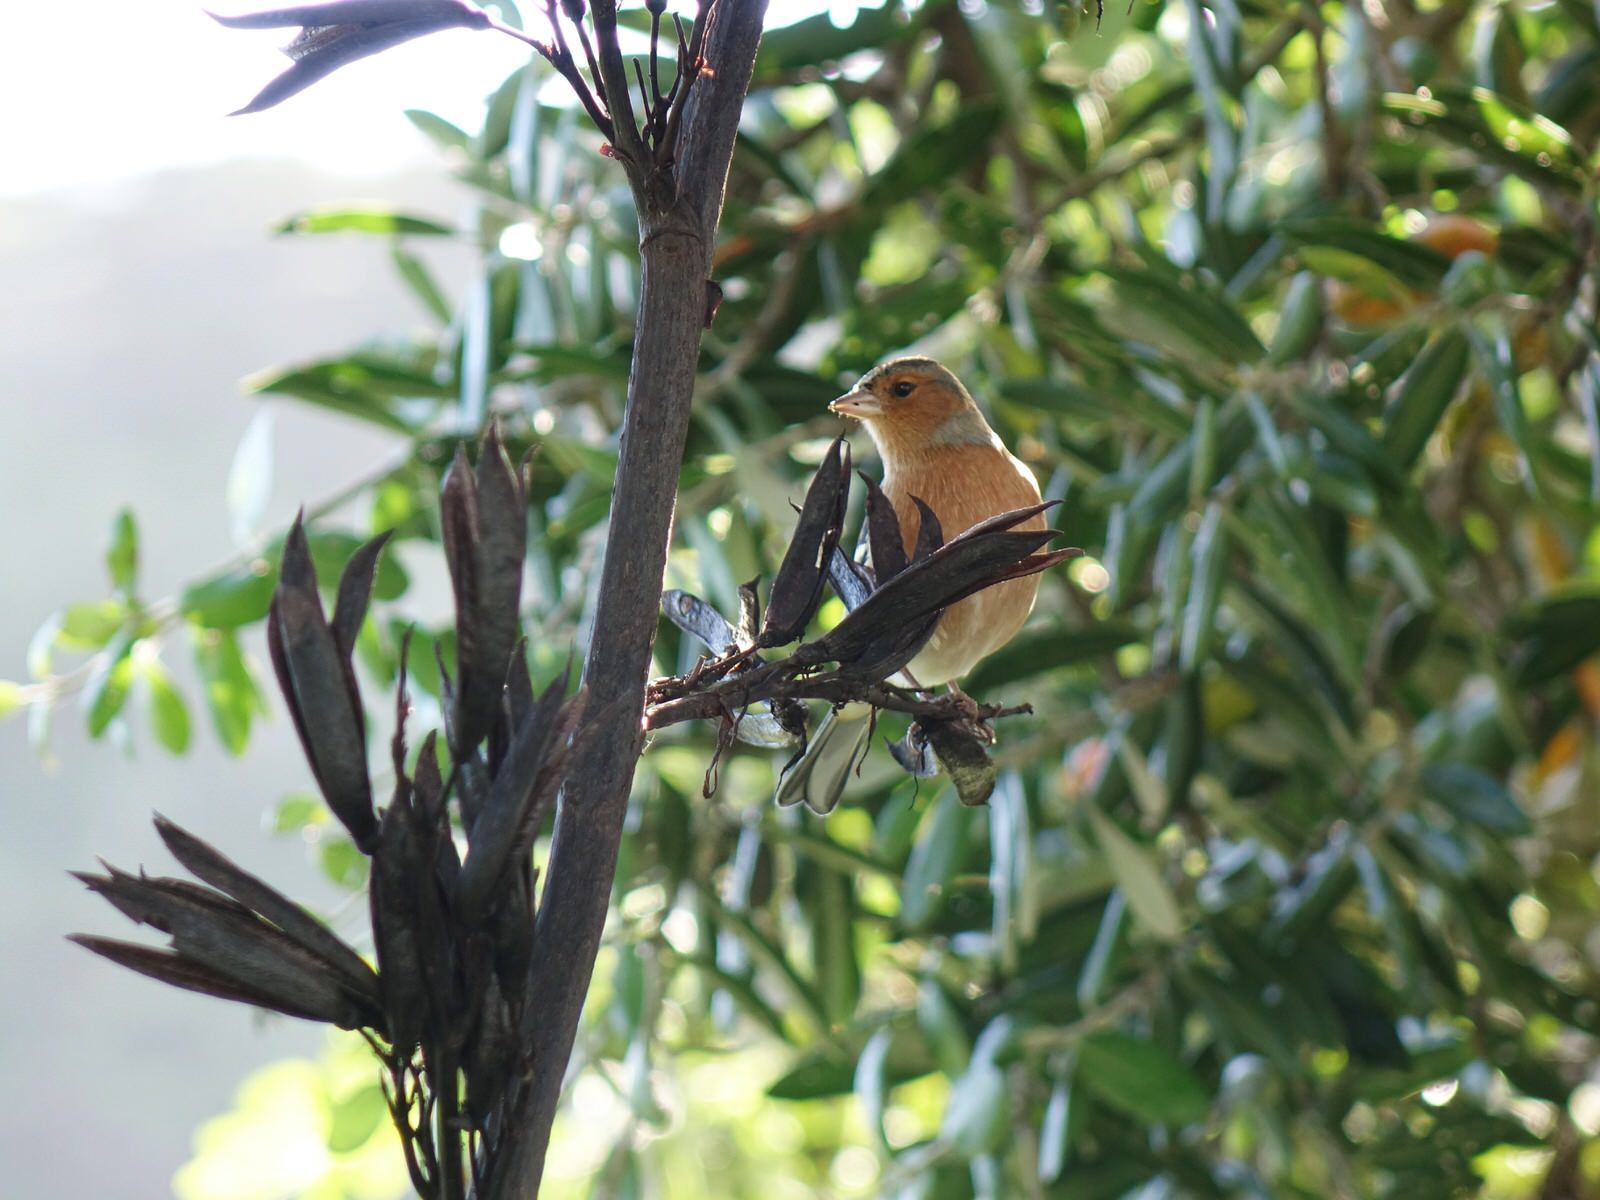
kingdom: Animalia
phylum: Chordata
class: Aves
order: Passeriformes
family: Fringillidae
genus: Fringilla
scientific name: Fringilla coelebs
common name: Common chaffinch
